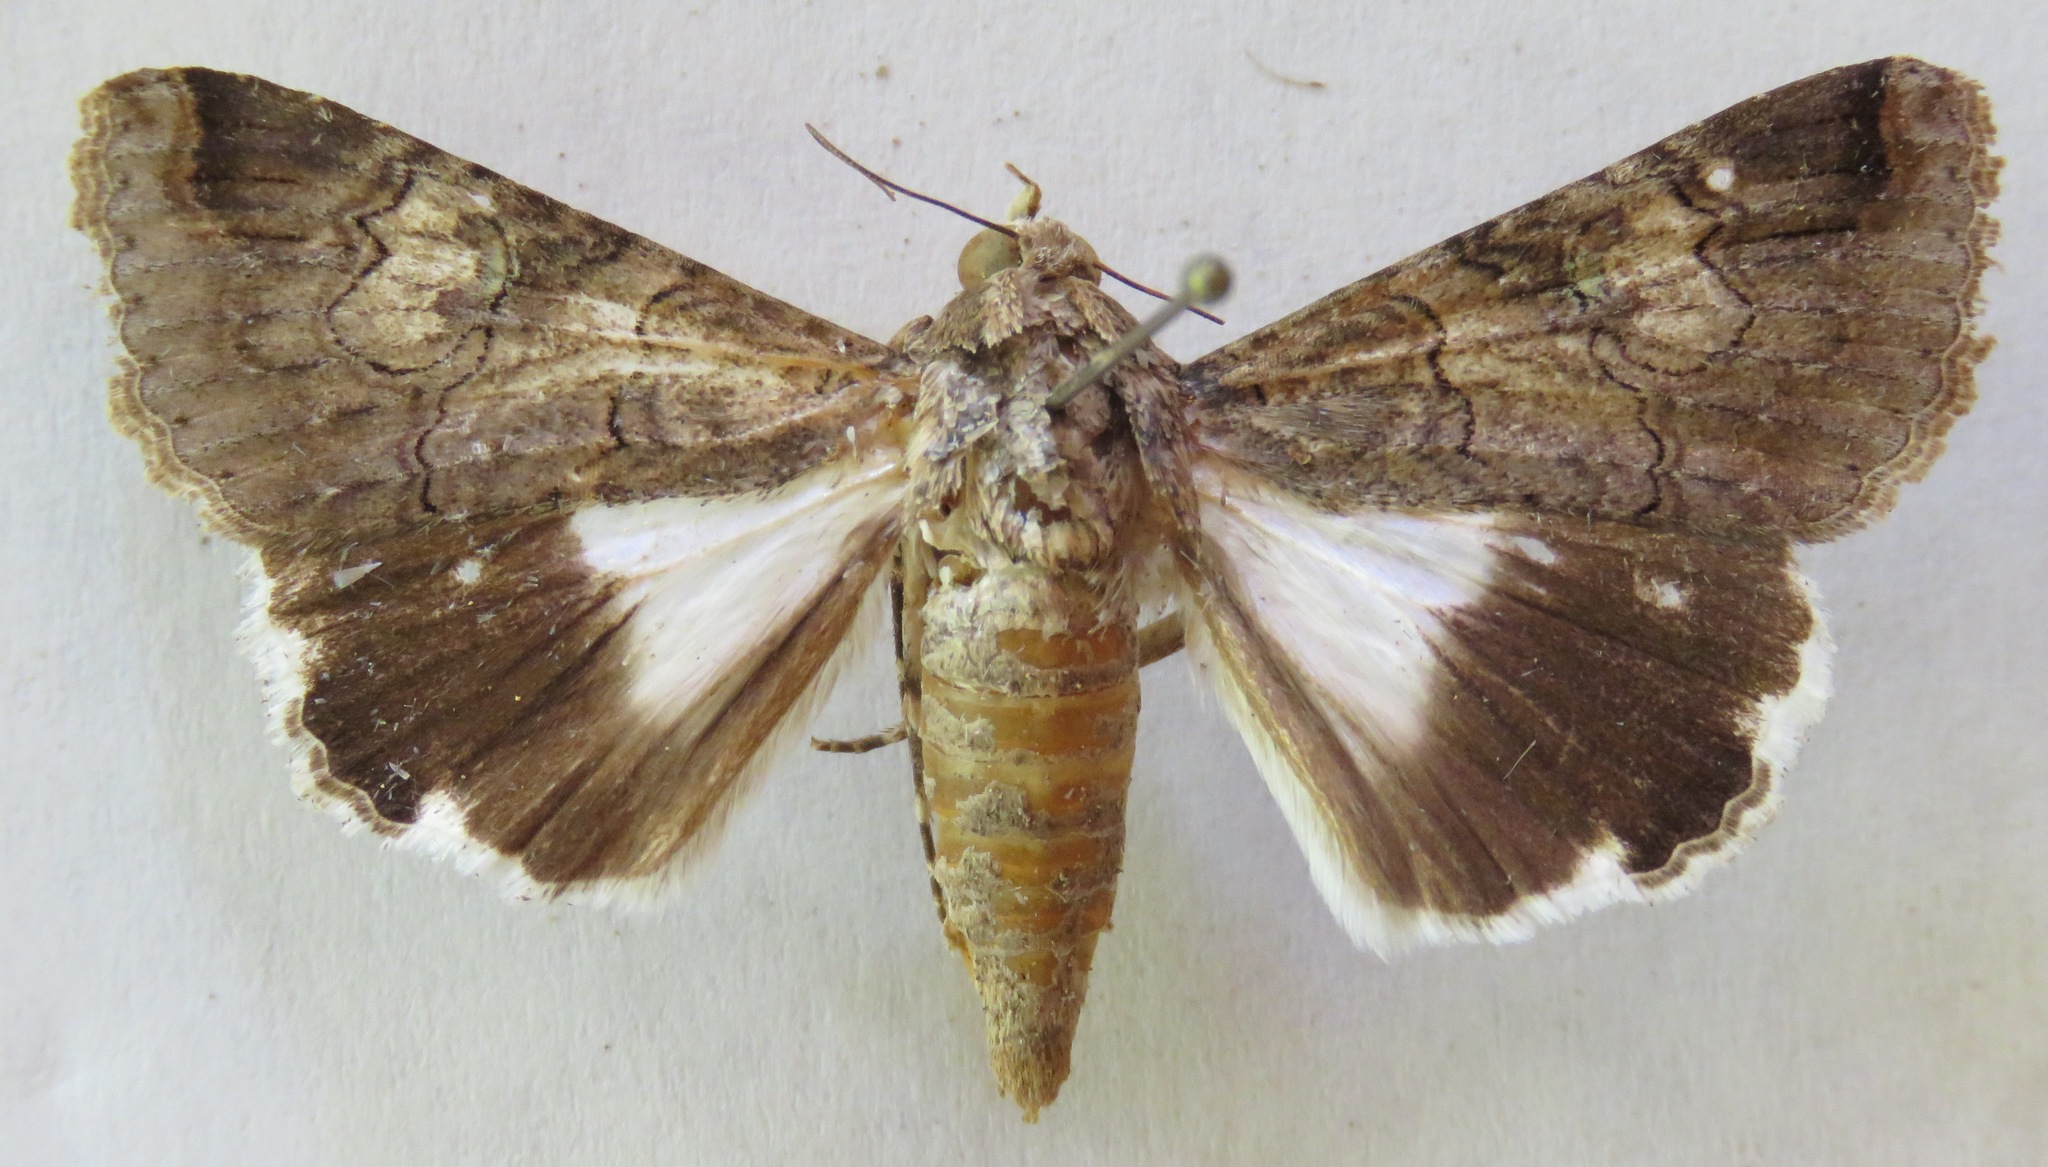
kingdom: Animalia
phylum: Arthropoda
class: Insecta
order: Lepidoptera
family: Erebidae
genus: Melipotis
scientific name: Melipotis famelica
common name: Famelica melipotis moth
